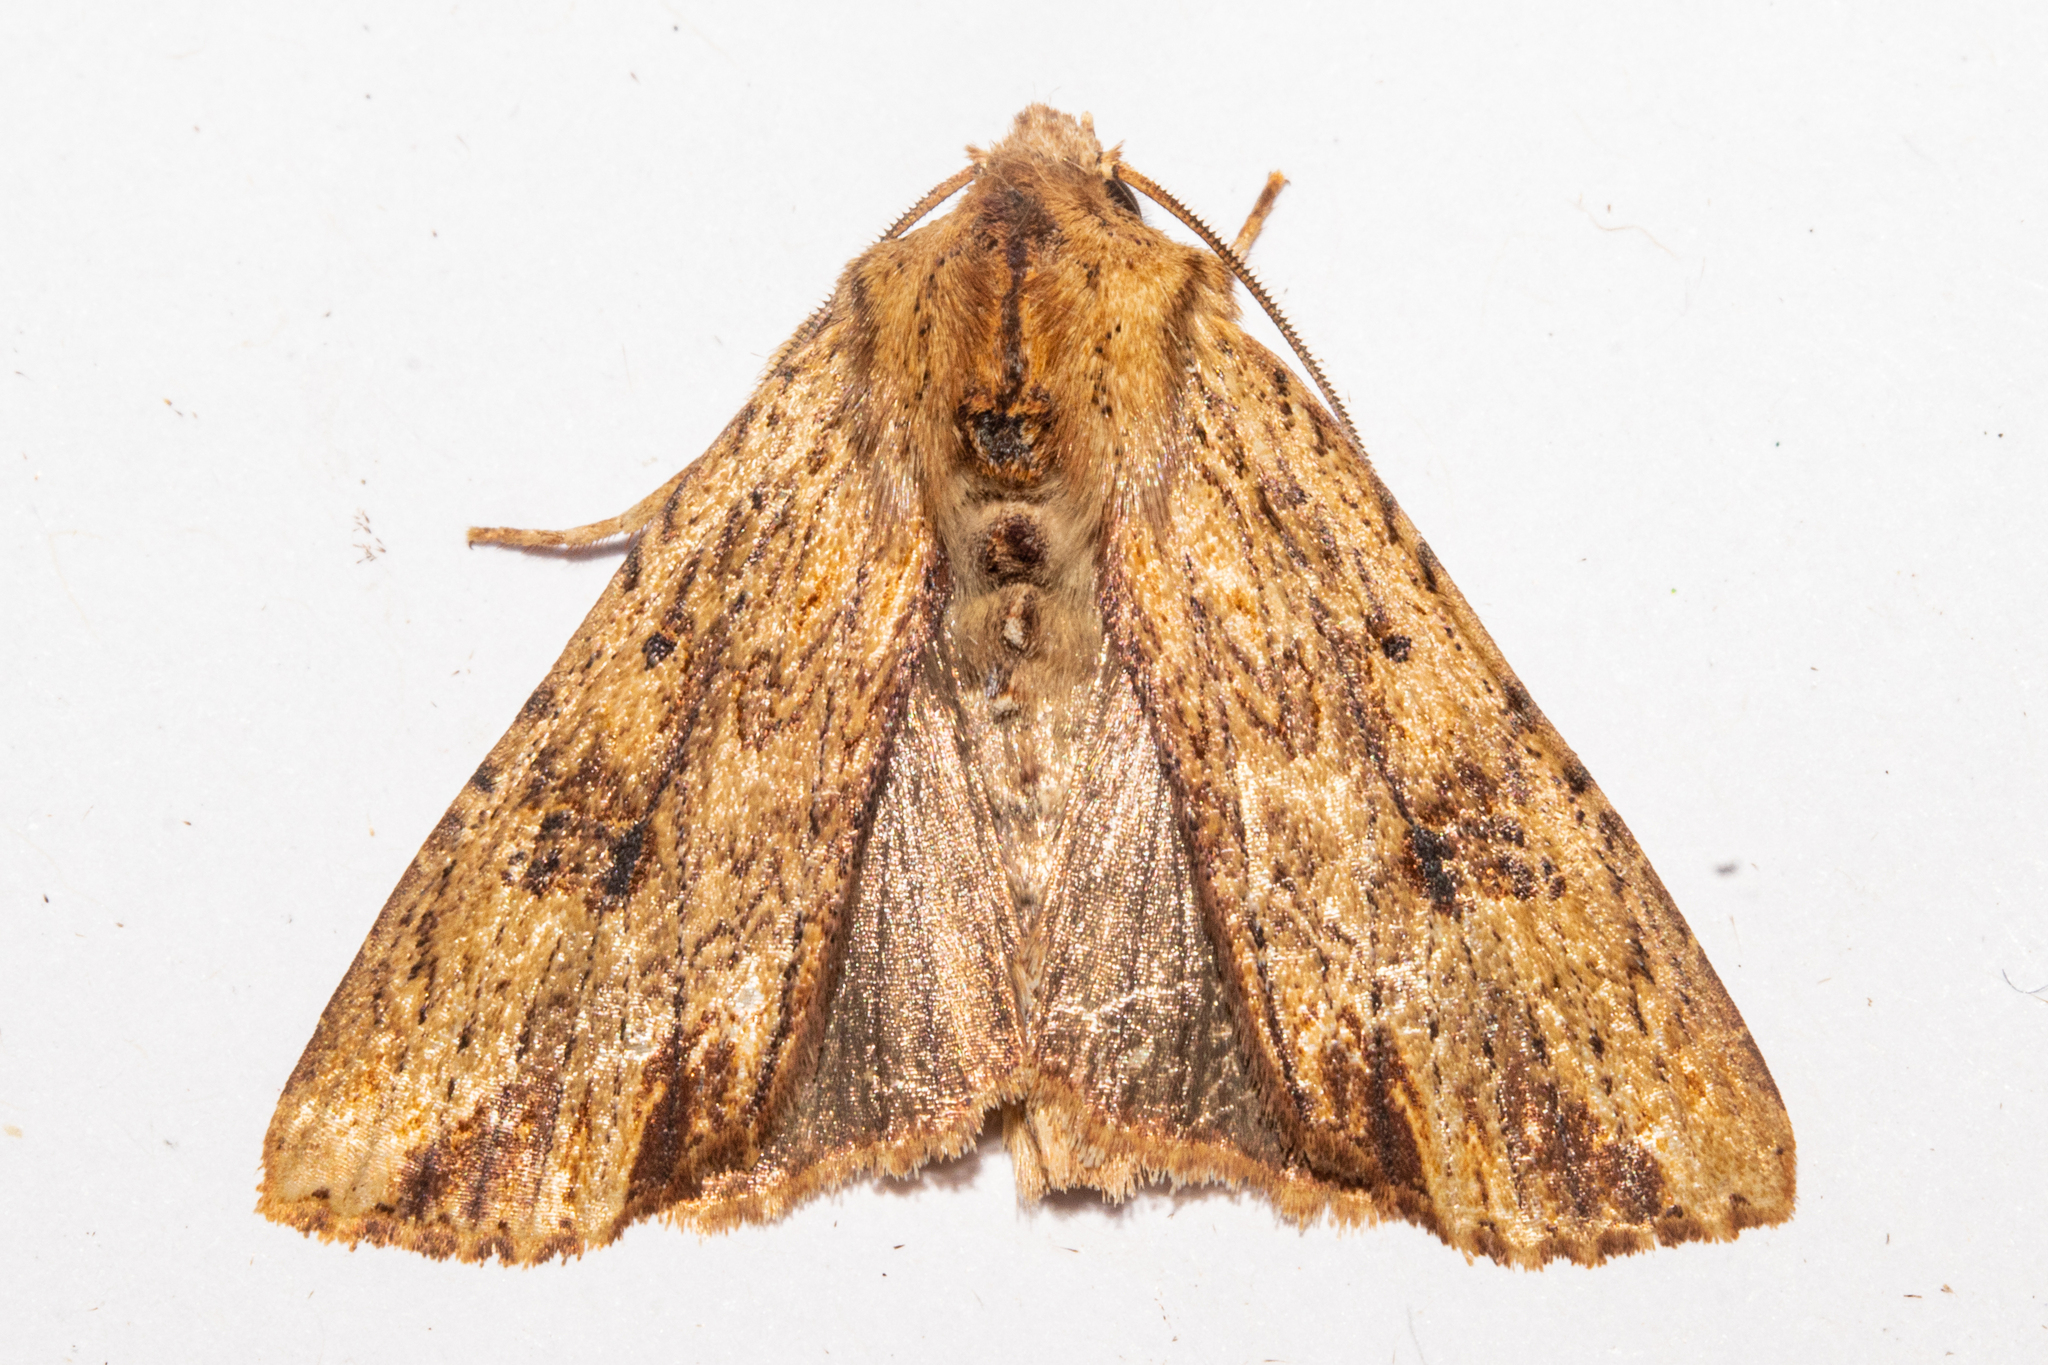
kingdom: Animalia
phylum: Arthropoda
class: Insecta
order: Lepidoptera
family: Noctuidae
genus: Ichneutica
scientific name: Ichneutica
